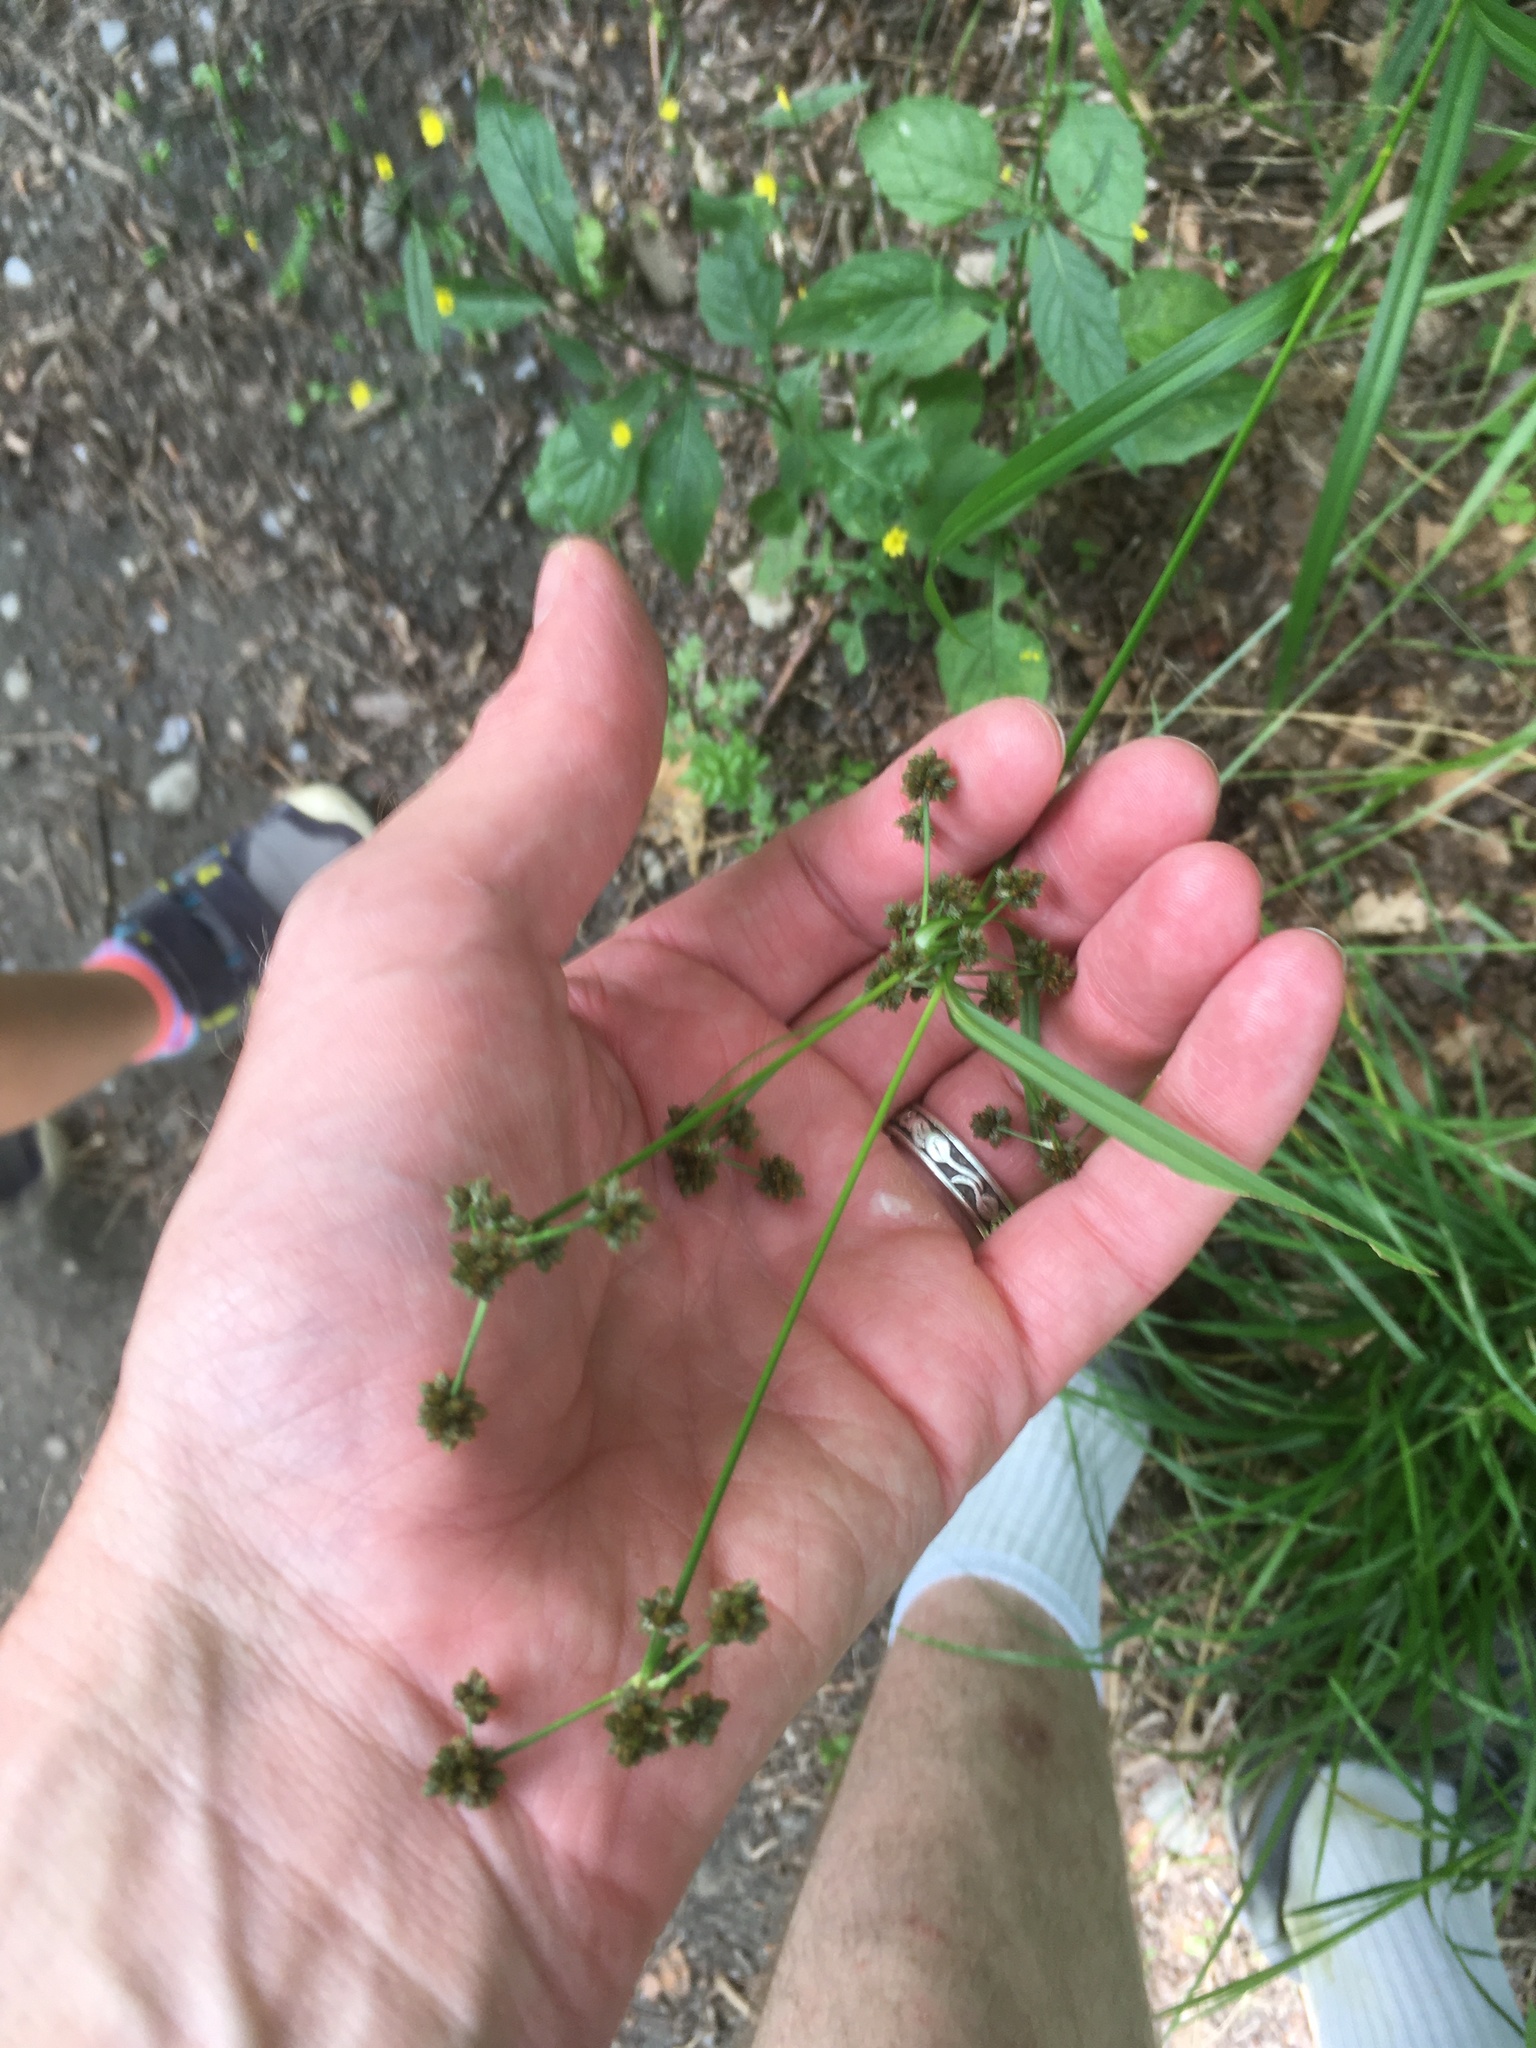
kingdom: Plantae
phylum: Tracheophyta
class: Liliopsida
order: Poales
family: Cyperaceae
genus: Scirpus
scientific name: Scirpus hattorianus
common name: Early dark-green bulrush
